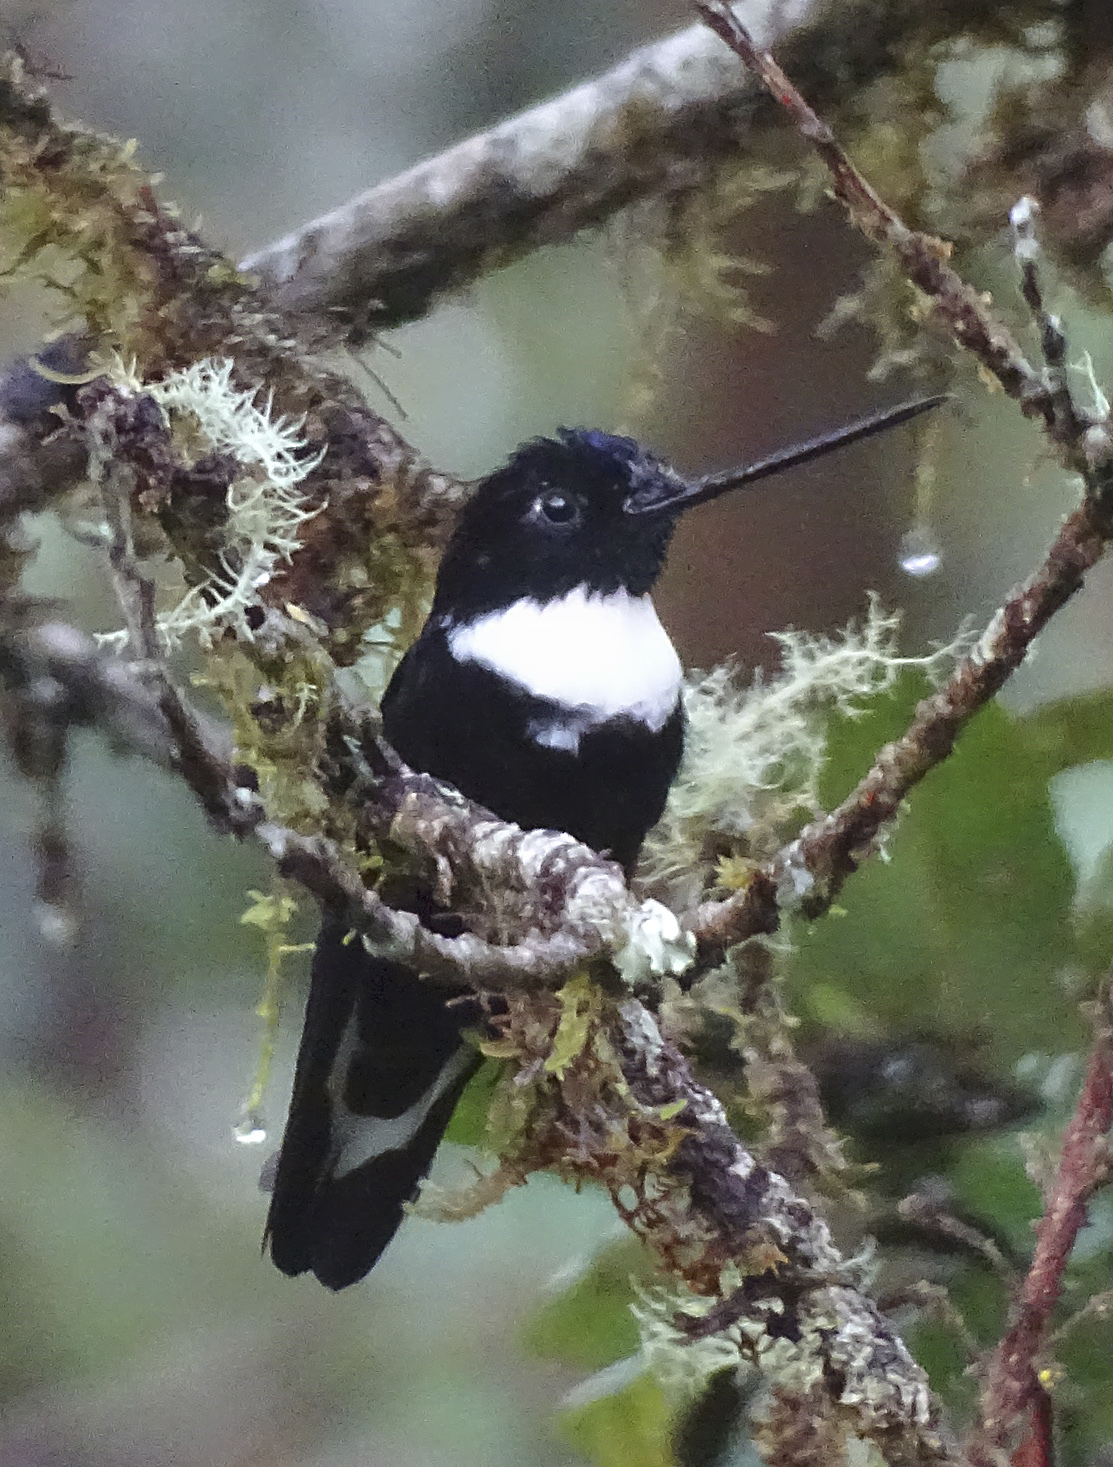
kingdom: Animalia
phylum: Chordata
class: Aves
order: Apodiformes
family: Trochilidae
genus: Coeligena
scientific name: Coeligena torquata
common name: Collared inca
